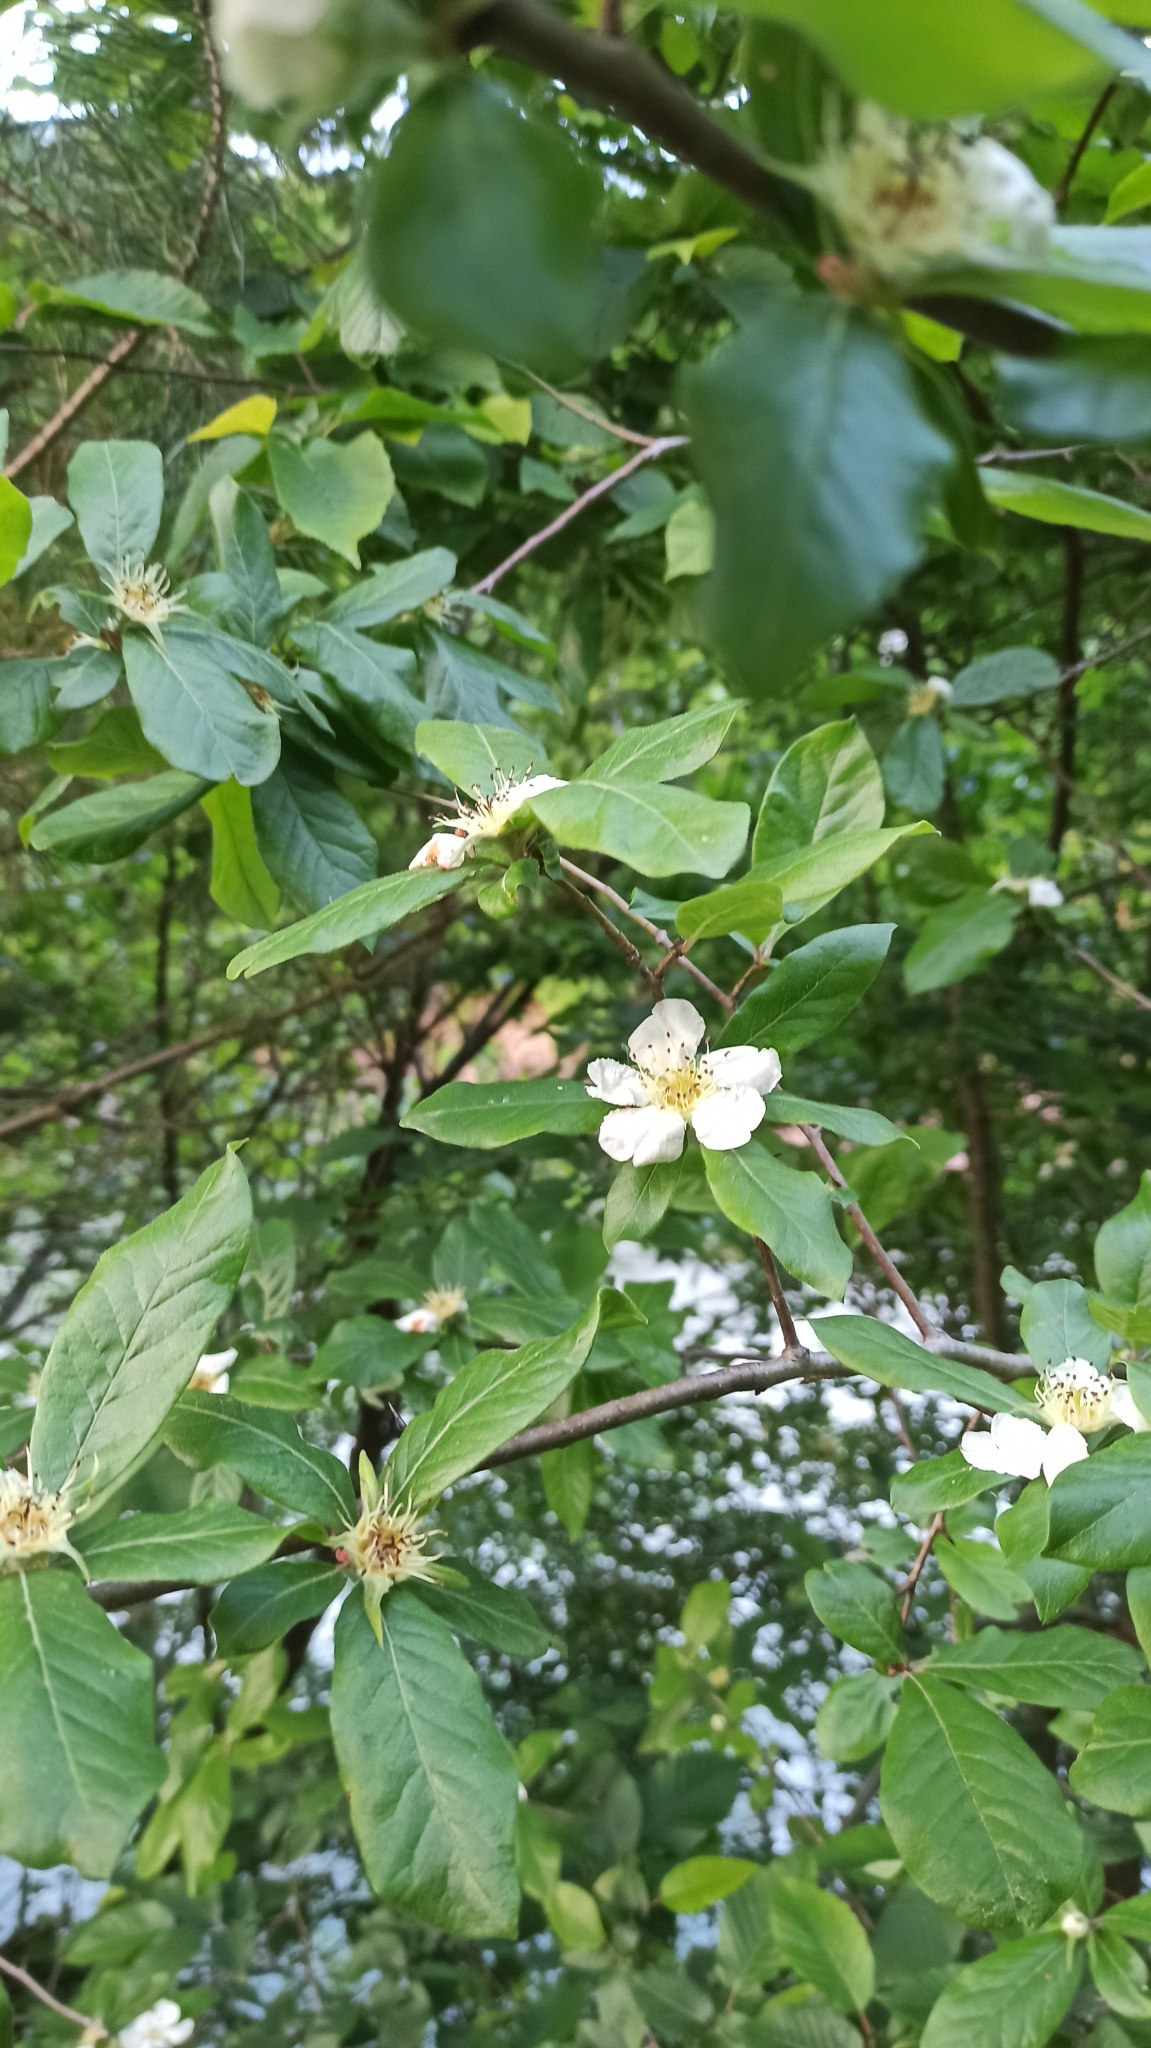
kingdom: Plantae
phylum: Tracheophyta
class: Magnoliopsida
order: Rosales
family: Rosaceae
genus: Mespilus
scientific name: Mespilus germanica
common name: Medlar
